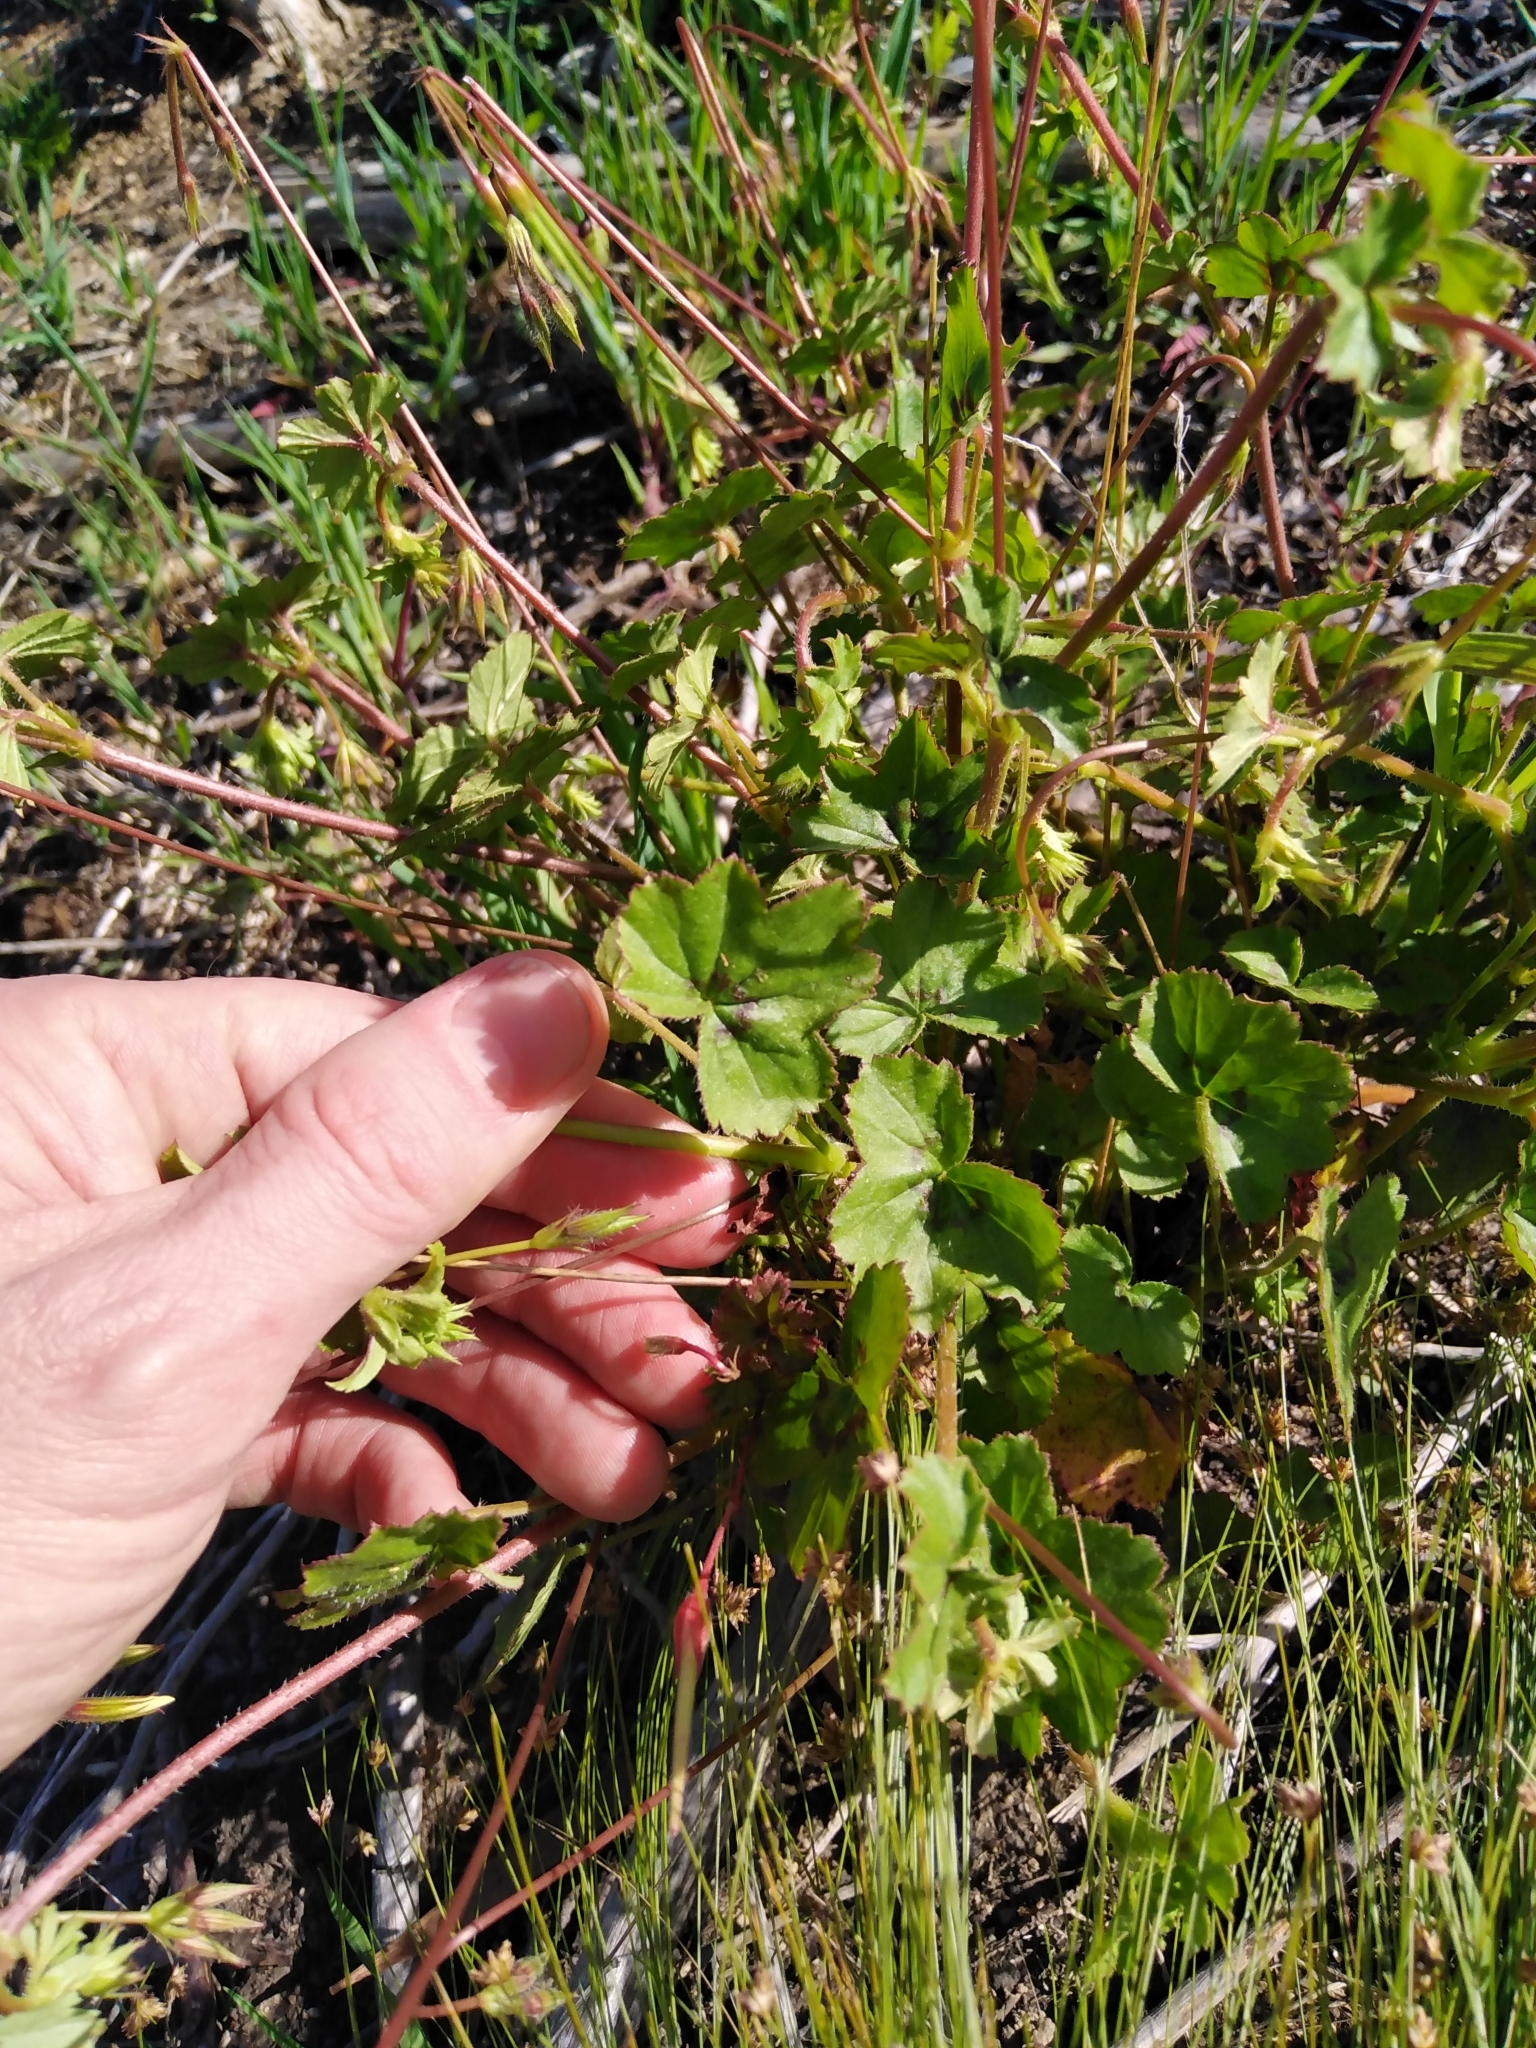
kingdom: Plantae
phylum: Tracheophyta
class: Magnoliopsida
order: Geraniales
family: Geraniaceae
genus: Pelargonium
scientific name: Pelargonium elongatum
